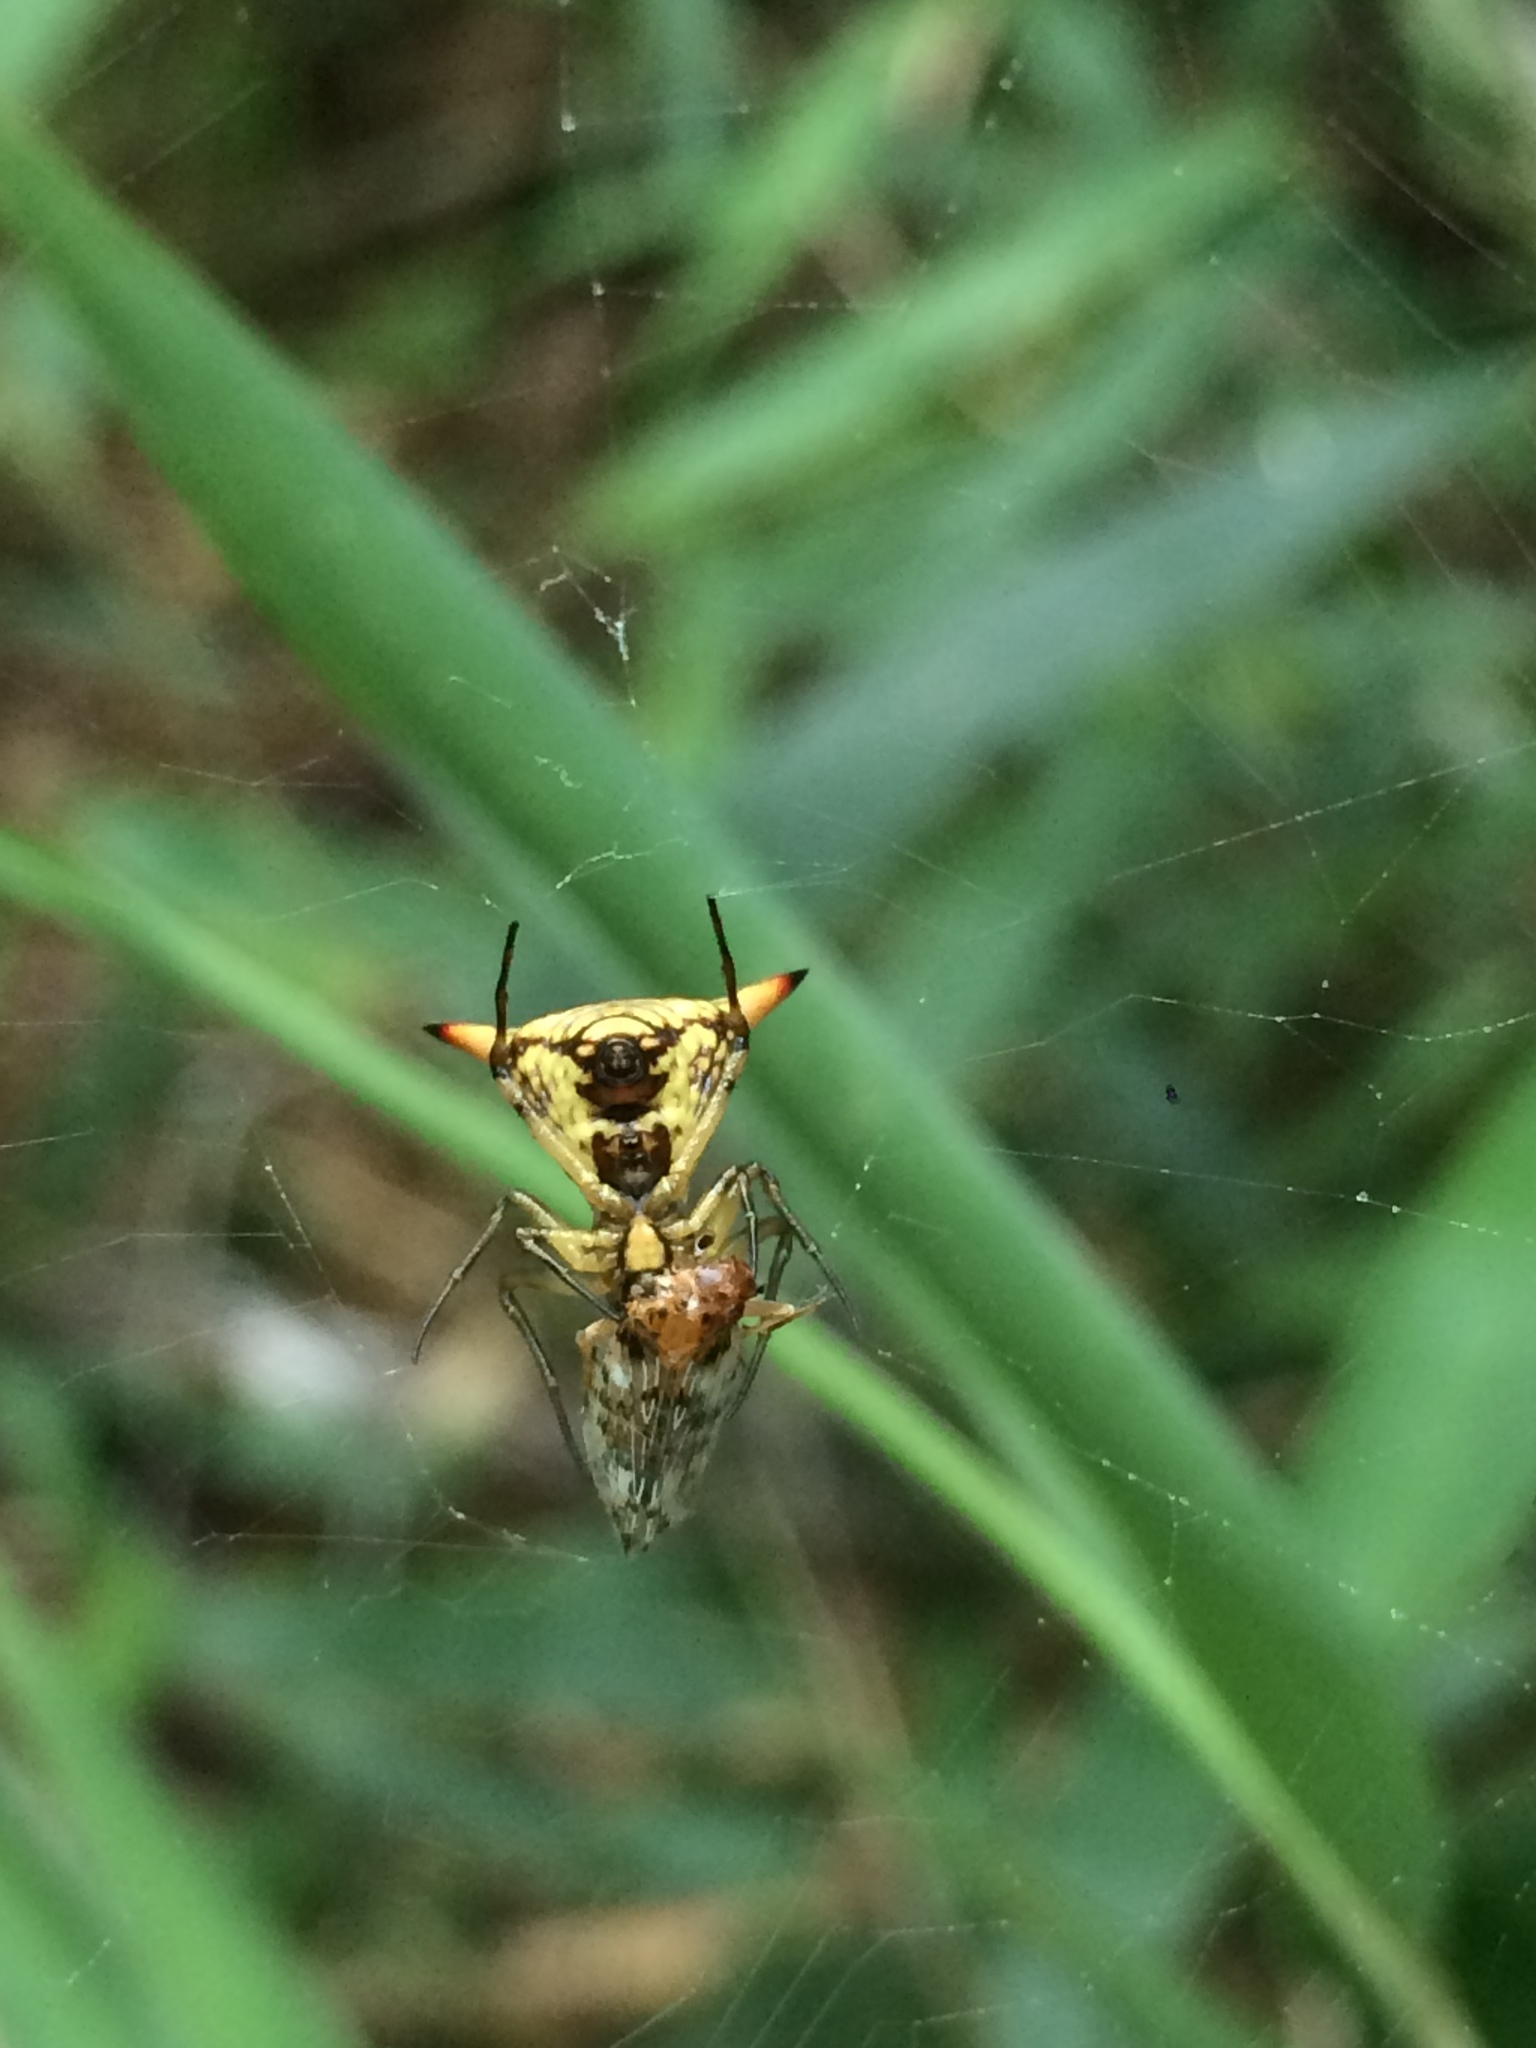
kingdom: Animalia
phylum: Arthropoda
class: Arachnida
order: Araneae
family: Araneidae
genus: Micrathena
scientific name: Micrathena annulata
